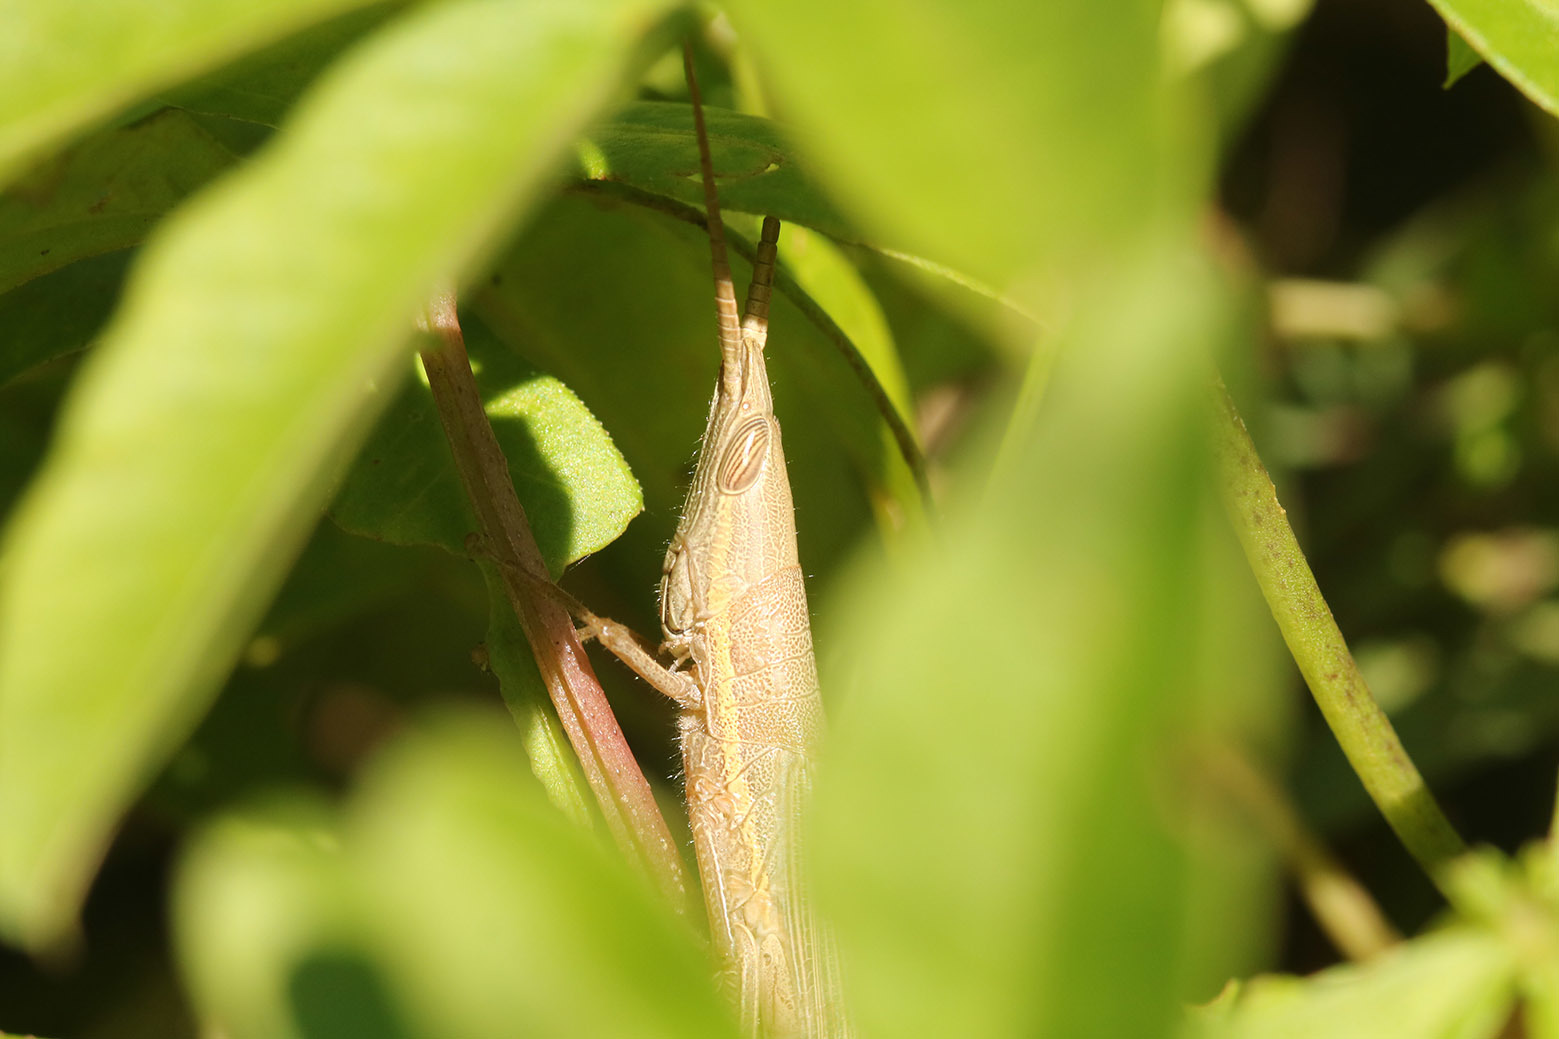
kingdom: Animalia
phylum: Arthropoda
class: Insecta
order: Orthoptera
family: Acrididae
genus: Leptysmina
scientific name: Leptysmina pallida
